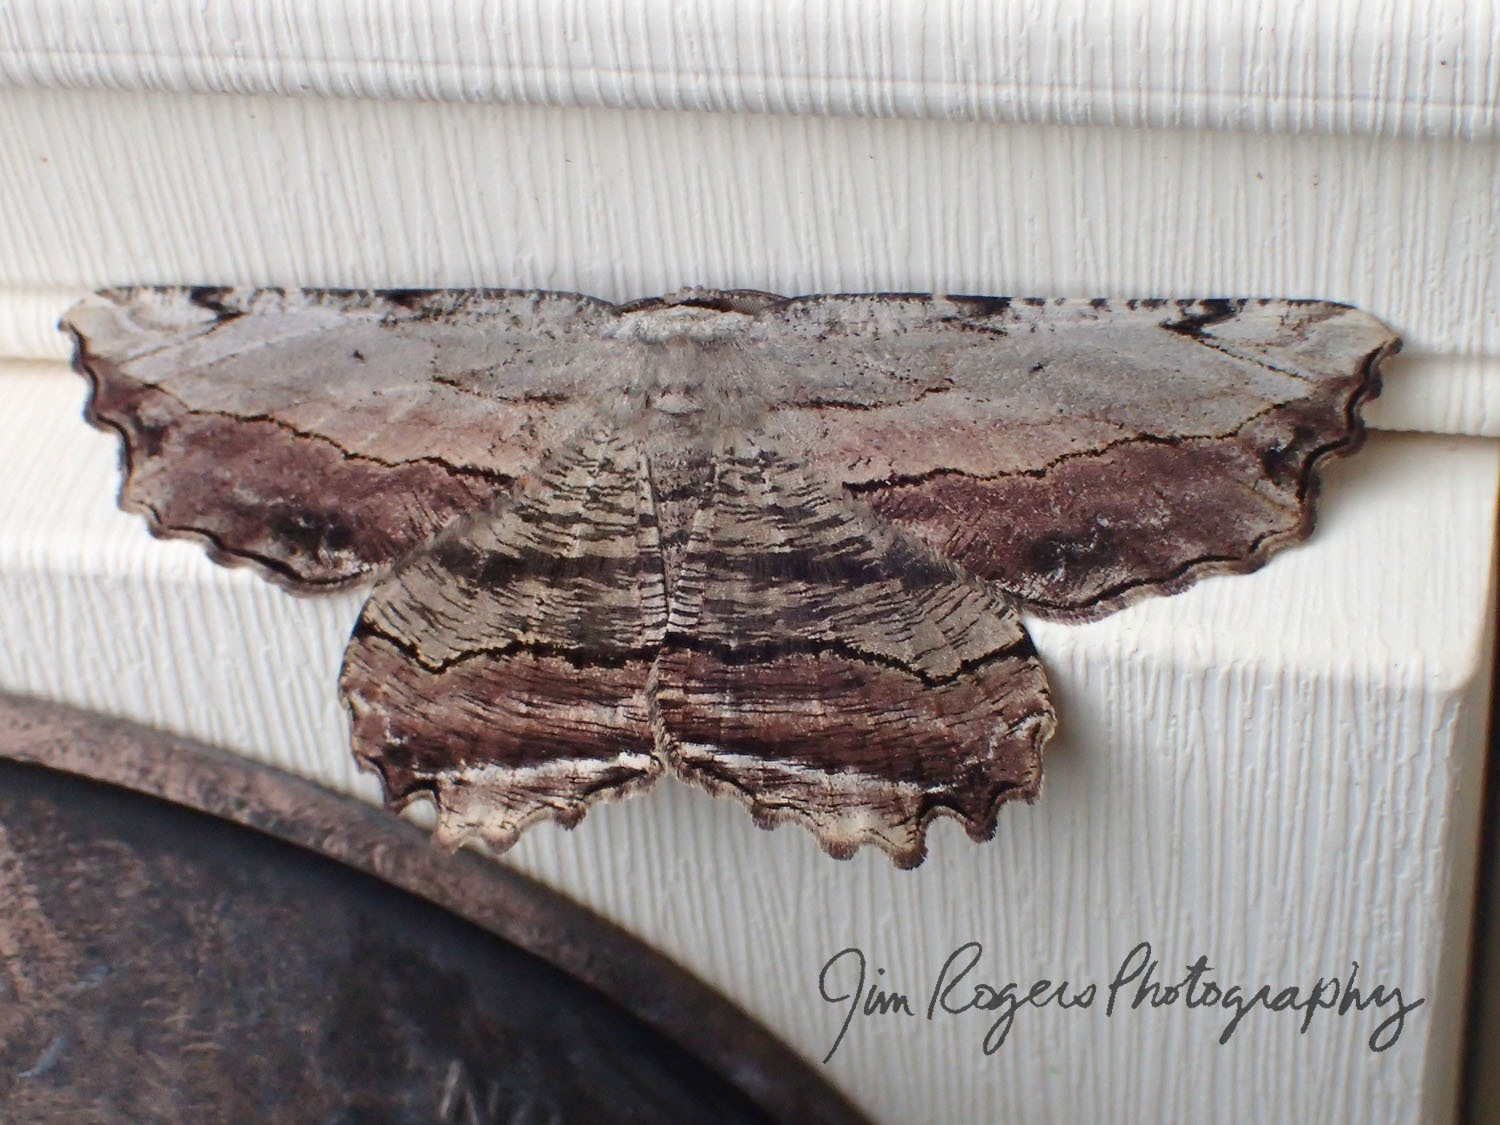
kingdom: Animalia
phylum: Arthropoda
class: Insecta
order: Lepidoptera
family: Geometridae
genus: Lytrosis
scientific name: Lytrosis unitaria
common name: Common lytrosis
